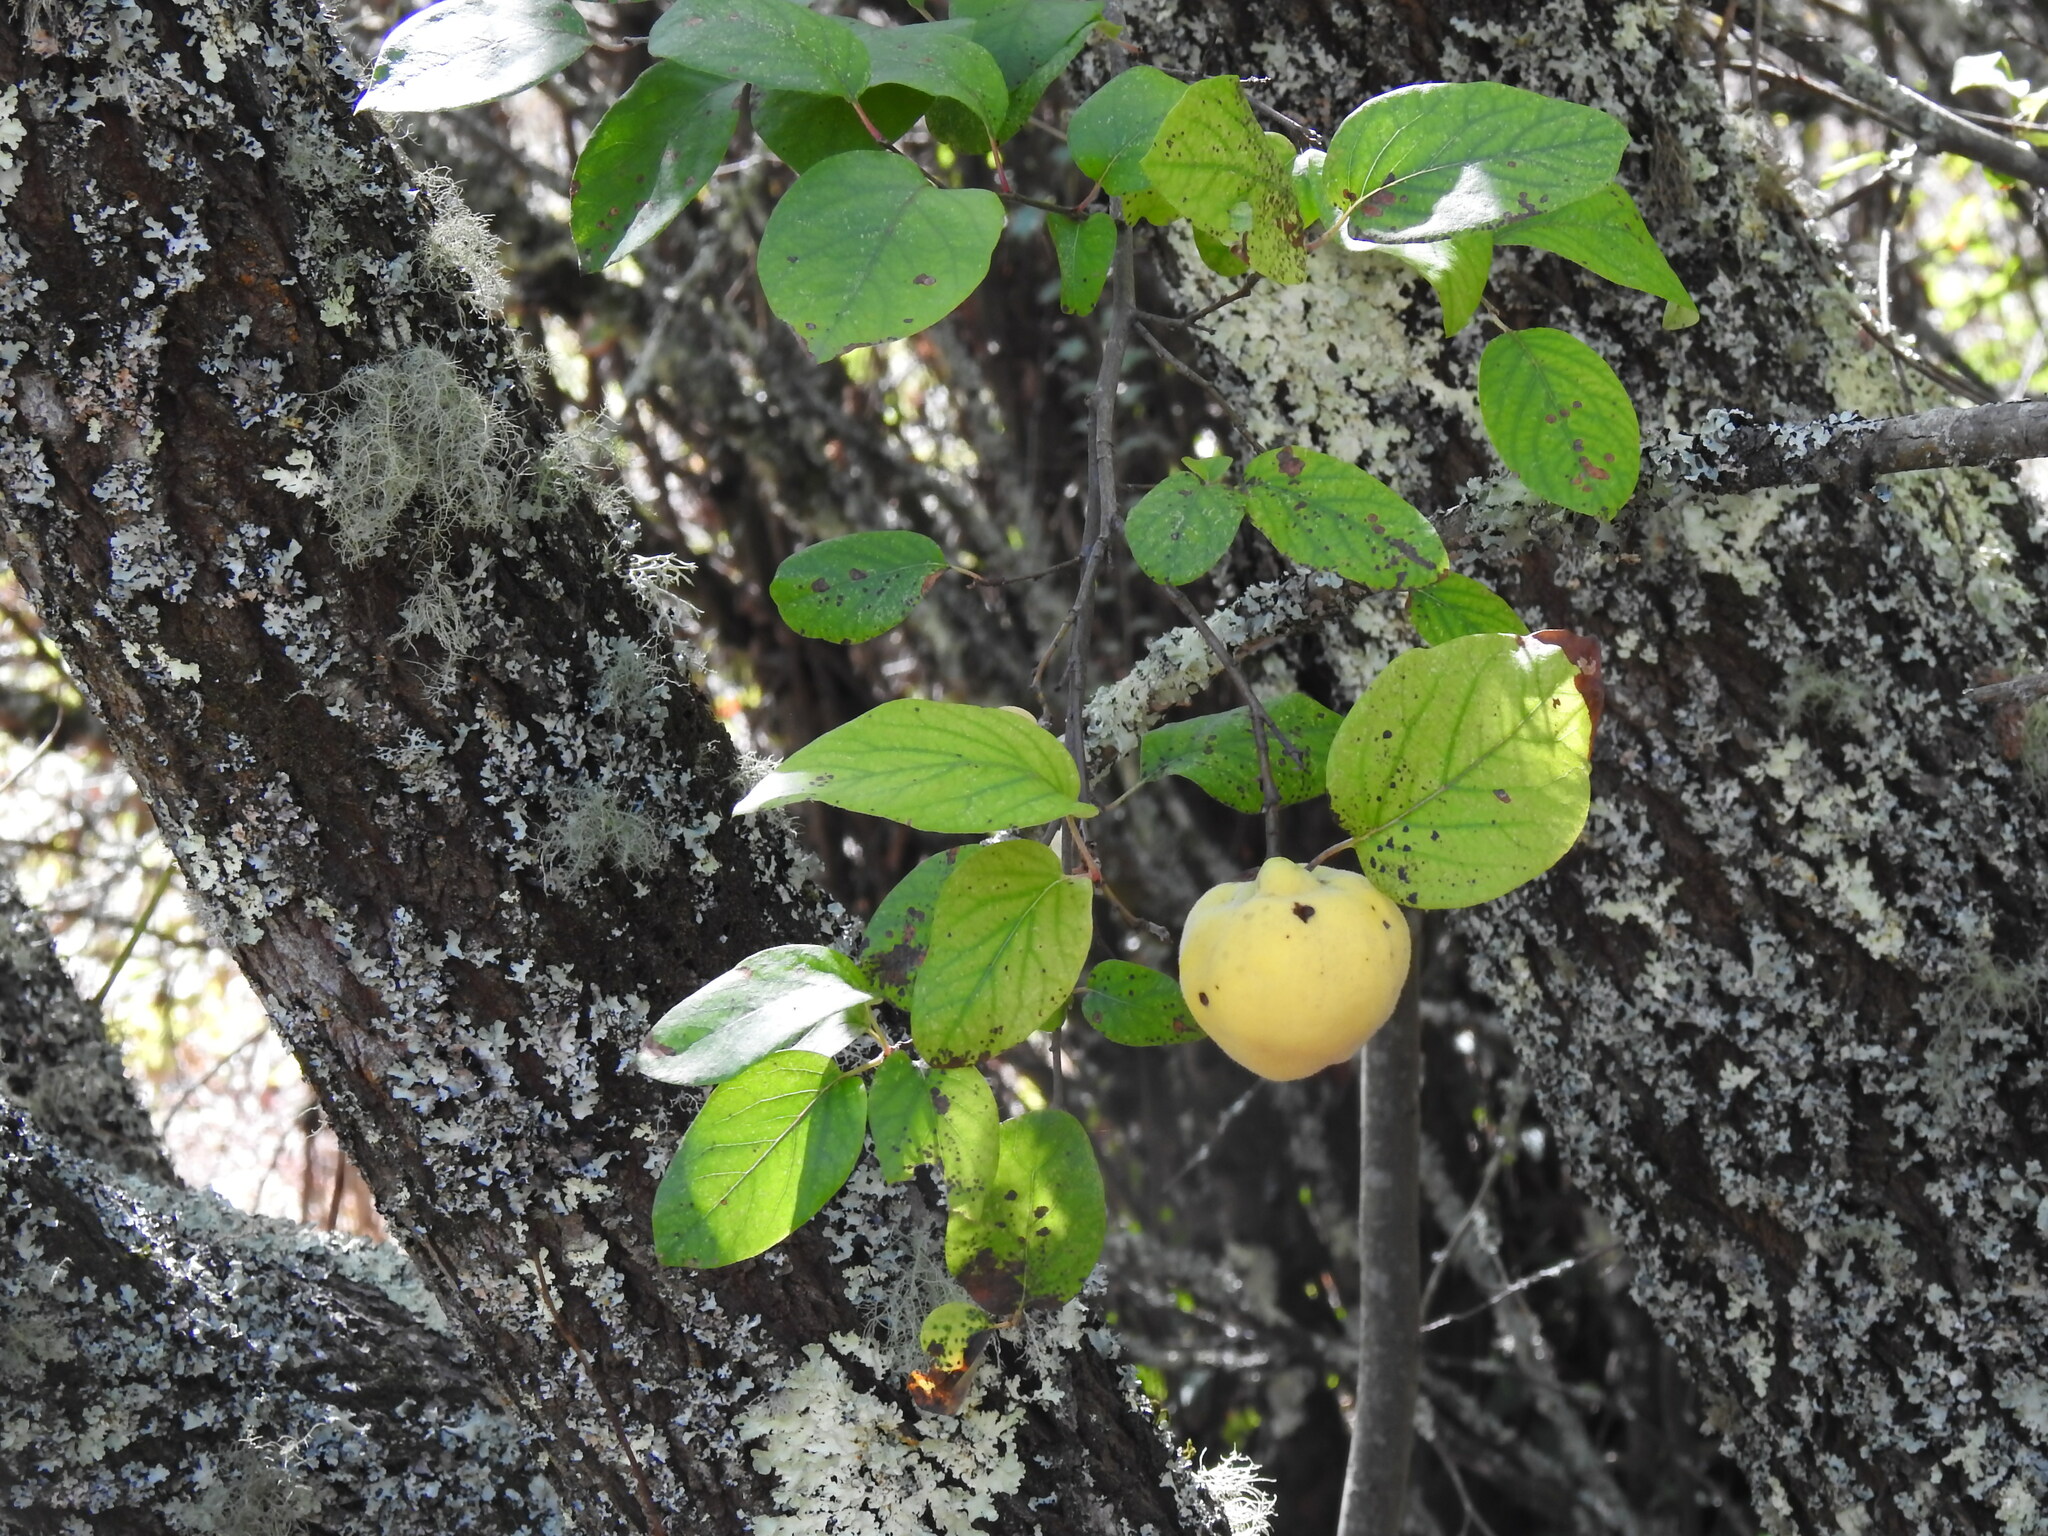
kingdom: Plantae
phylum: Tracheophyta
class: Magnoliopsida
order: Rosales
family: Rosaceae
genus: Cydonia
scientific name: Cydonia oblonga
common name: Quince
